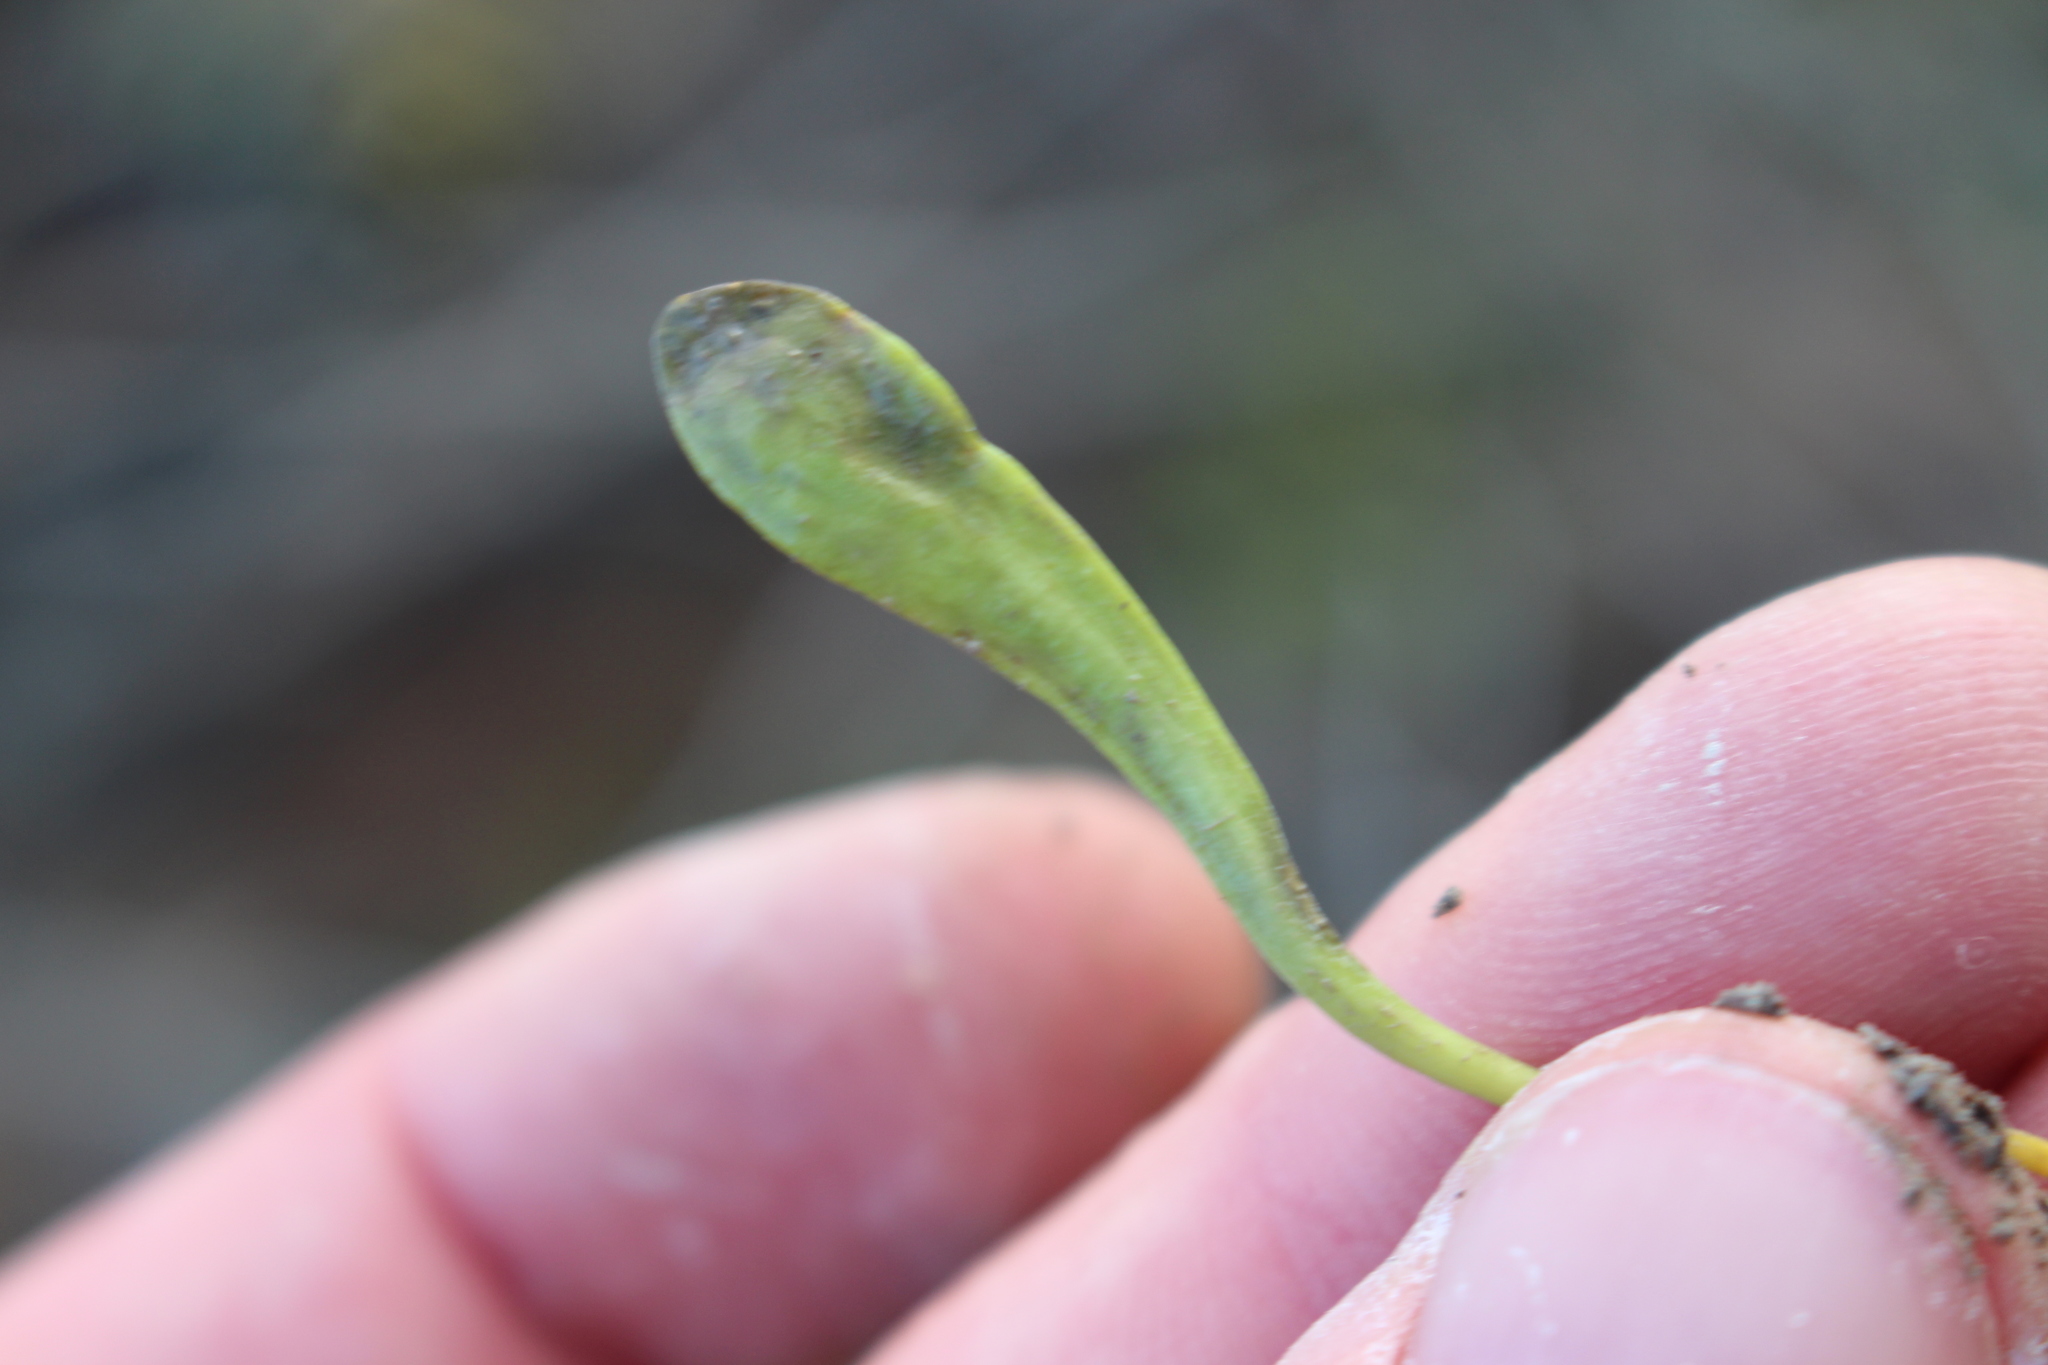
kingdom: Plantae
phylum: Tracheophyta
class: Magnoliopsida
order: Asterales
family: Goodeniaceae
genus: Goodenia
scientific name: Goodenia radicans
